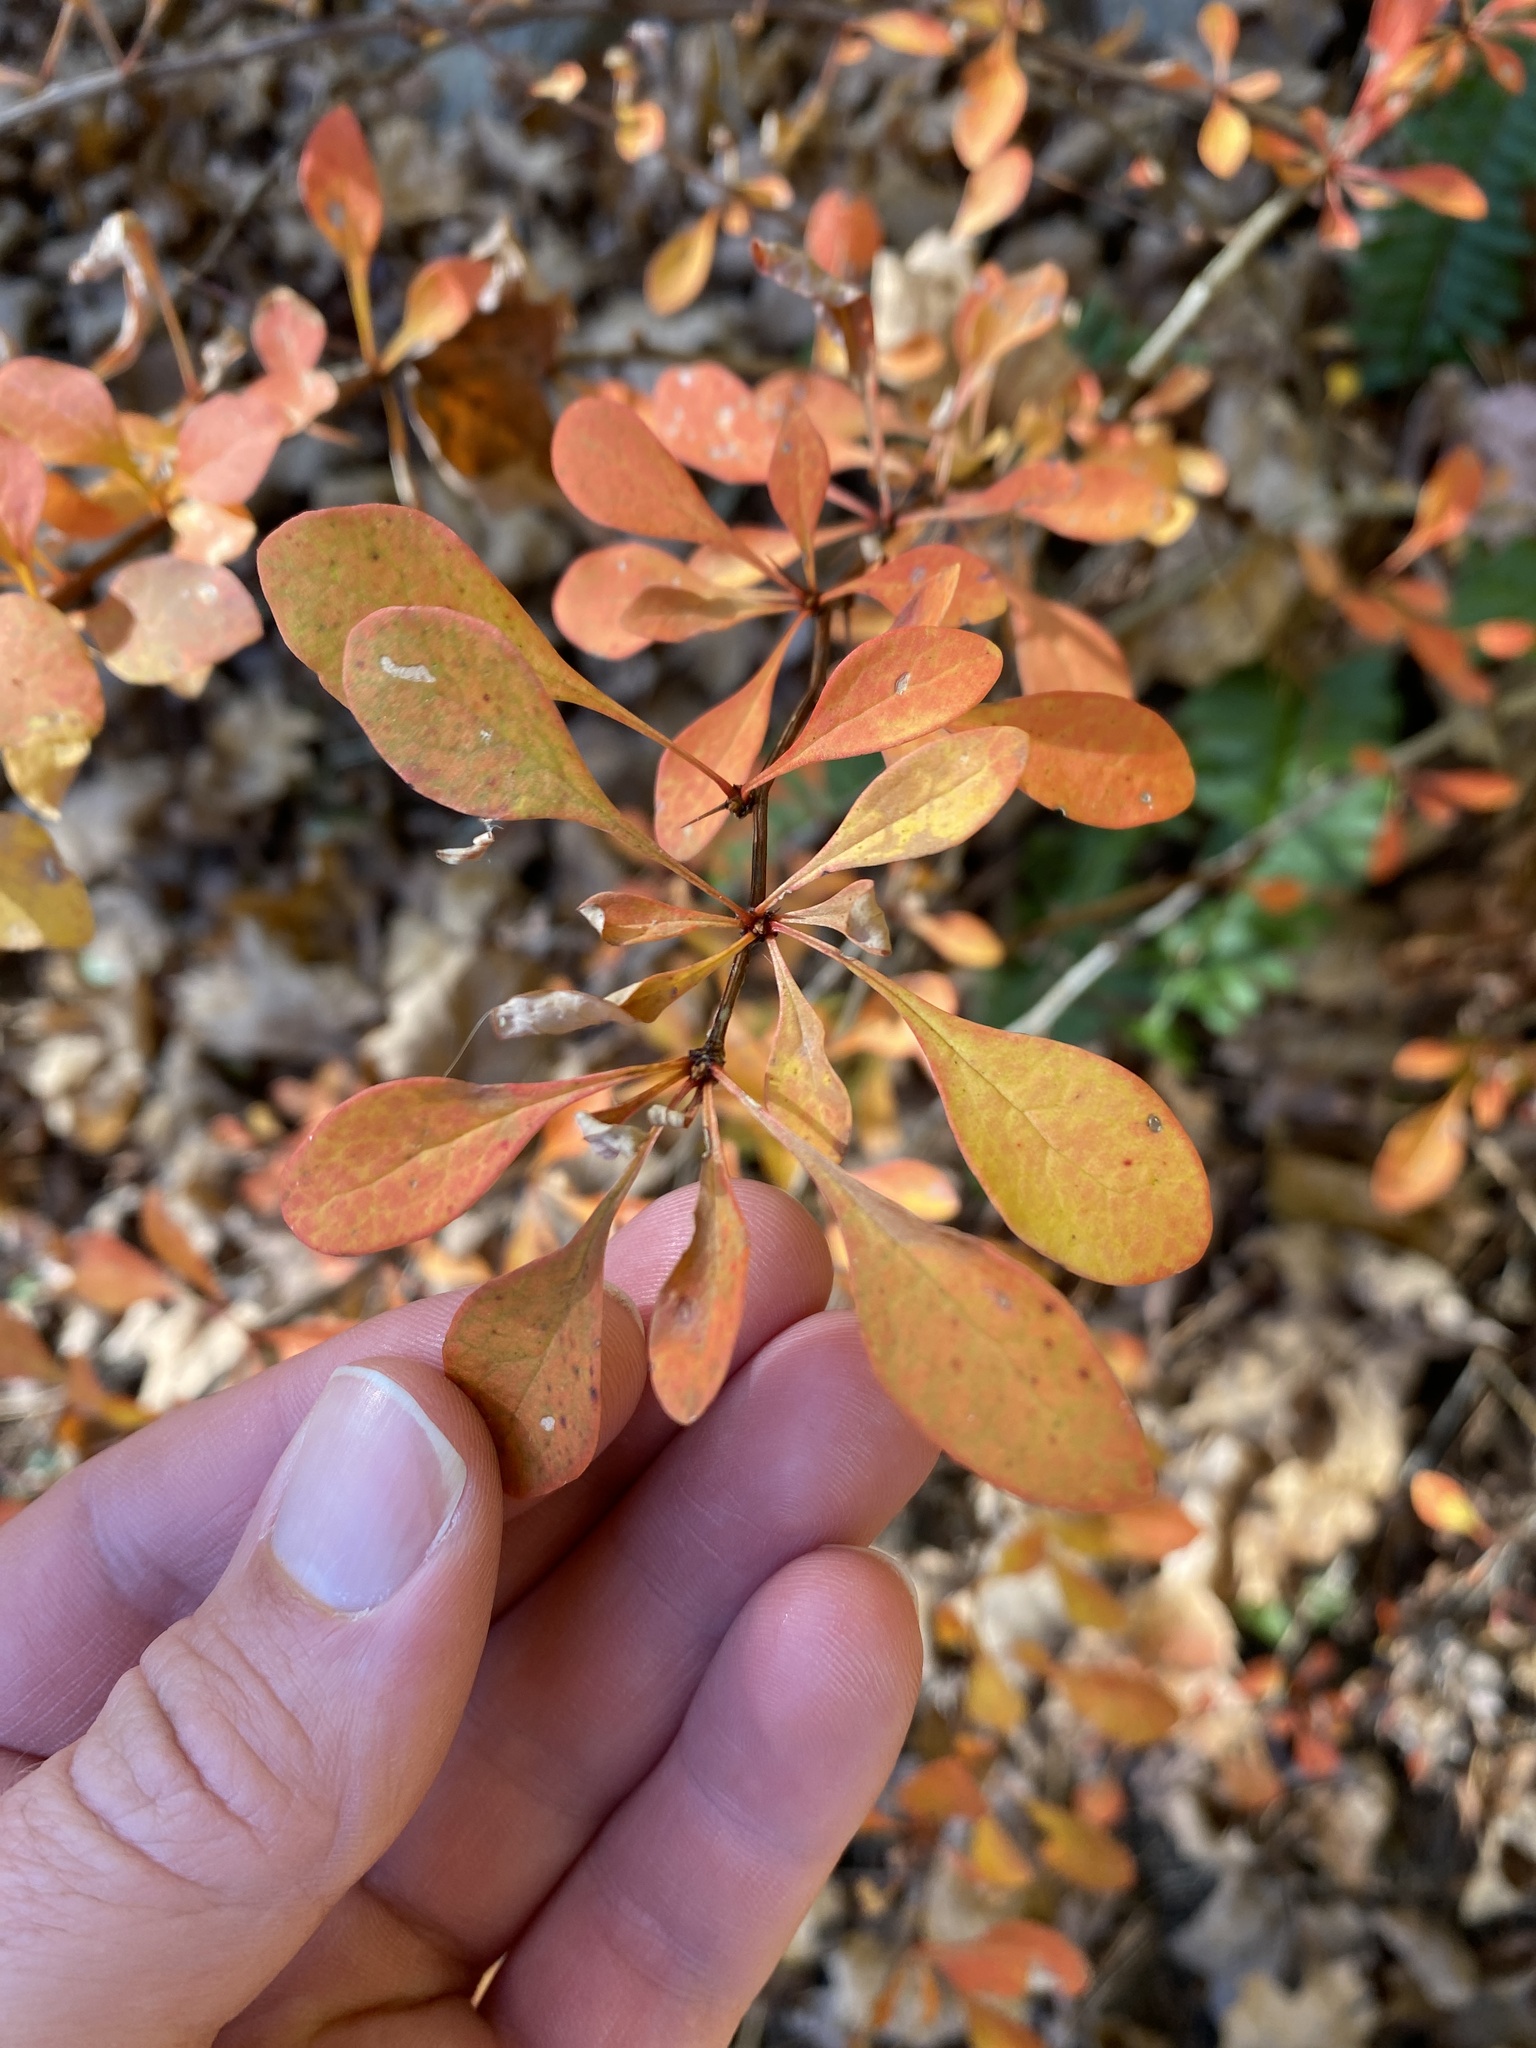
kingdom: Plantae
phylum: Tracheophyta
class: Magnoliopsida
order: Ranunculales
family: Berberidaceae
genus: Berberis
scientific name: Berberis thunbergii
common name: Japanese barberry
